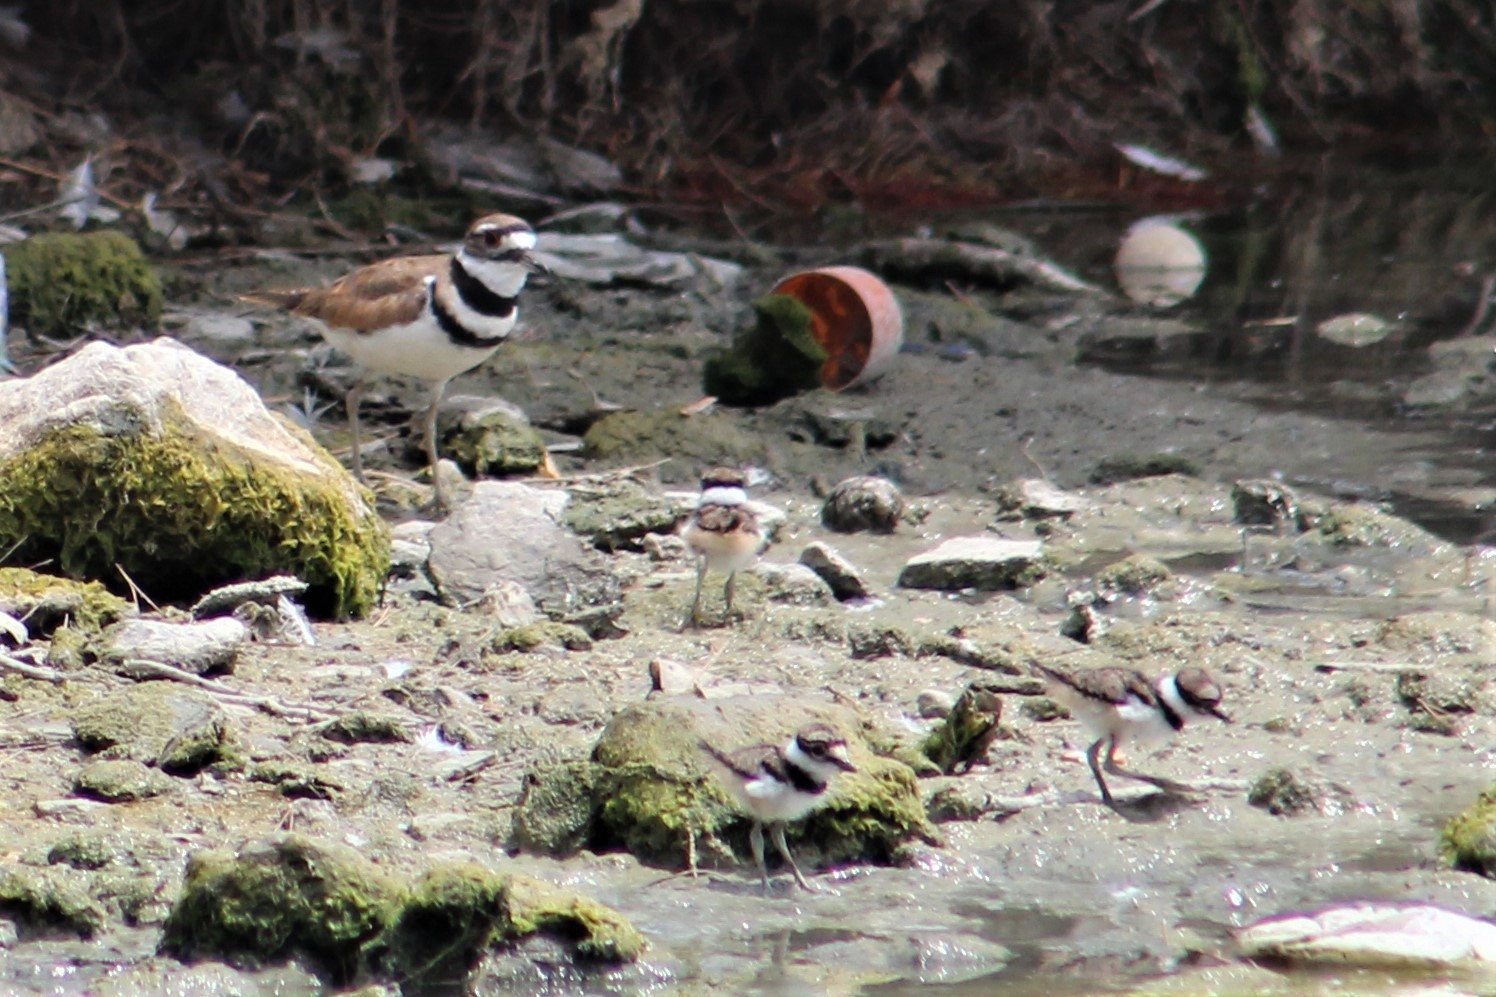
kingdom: Animalia
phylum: Chordata
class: Aves
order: Charadriiformes
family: Charadriidae
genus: Charadrius
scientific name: Charadrius vociferus
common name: Killdeer
